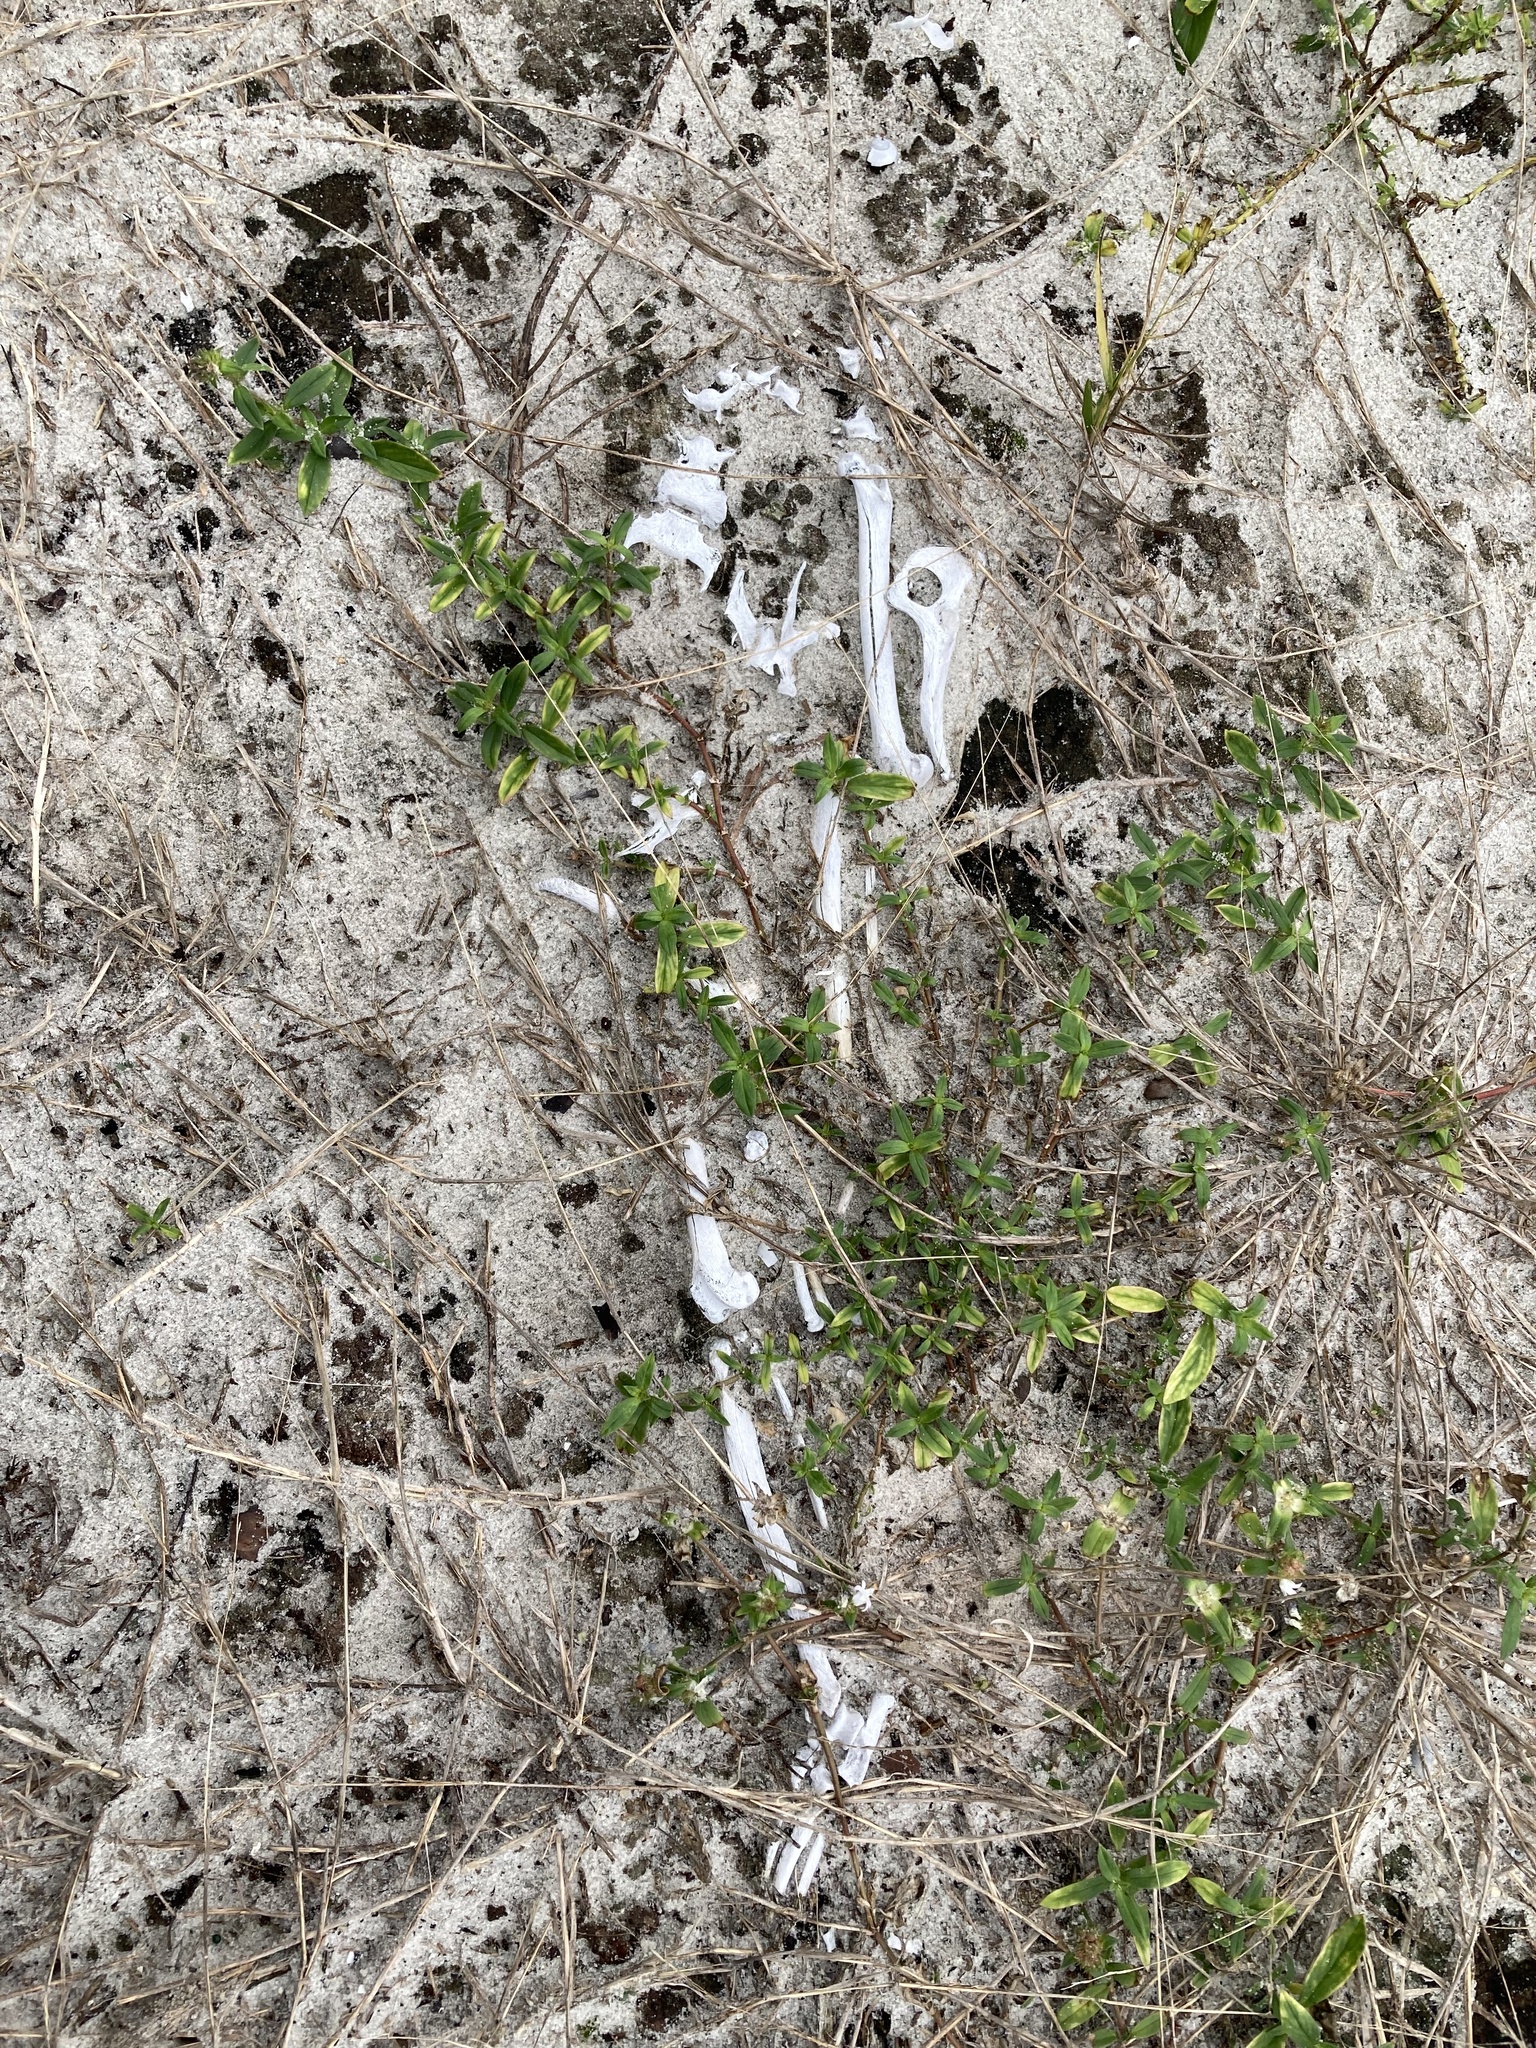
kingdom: Animalia
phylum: Chordata
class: Mammalia
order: Carnivora
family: Felidae
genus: Felis
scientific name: Felis catus
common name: Domestic cat
